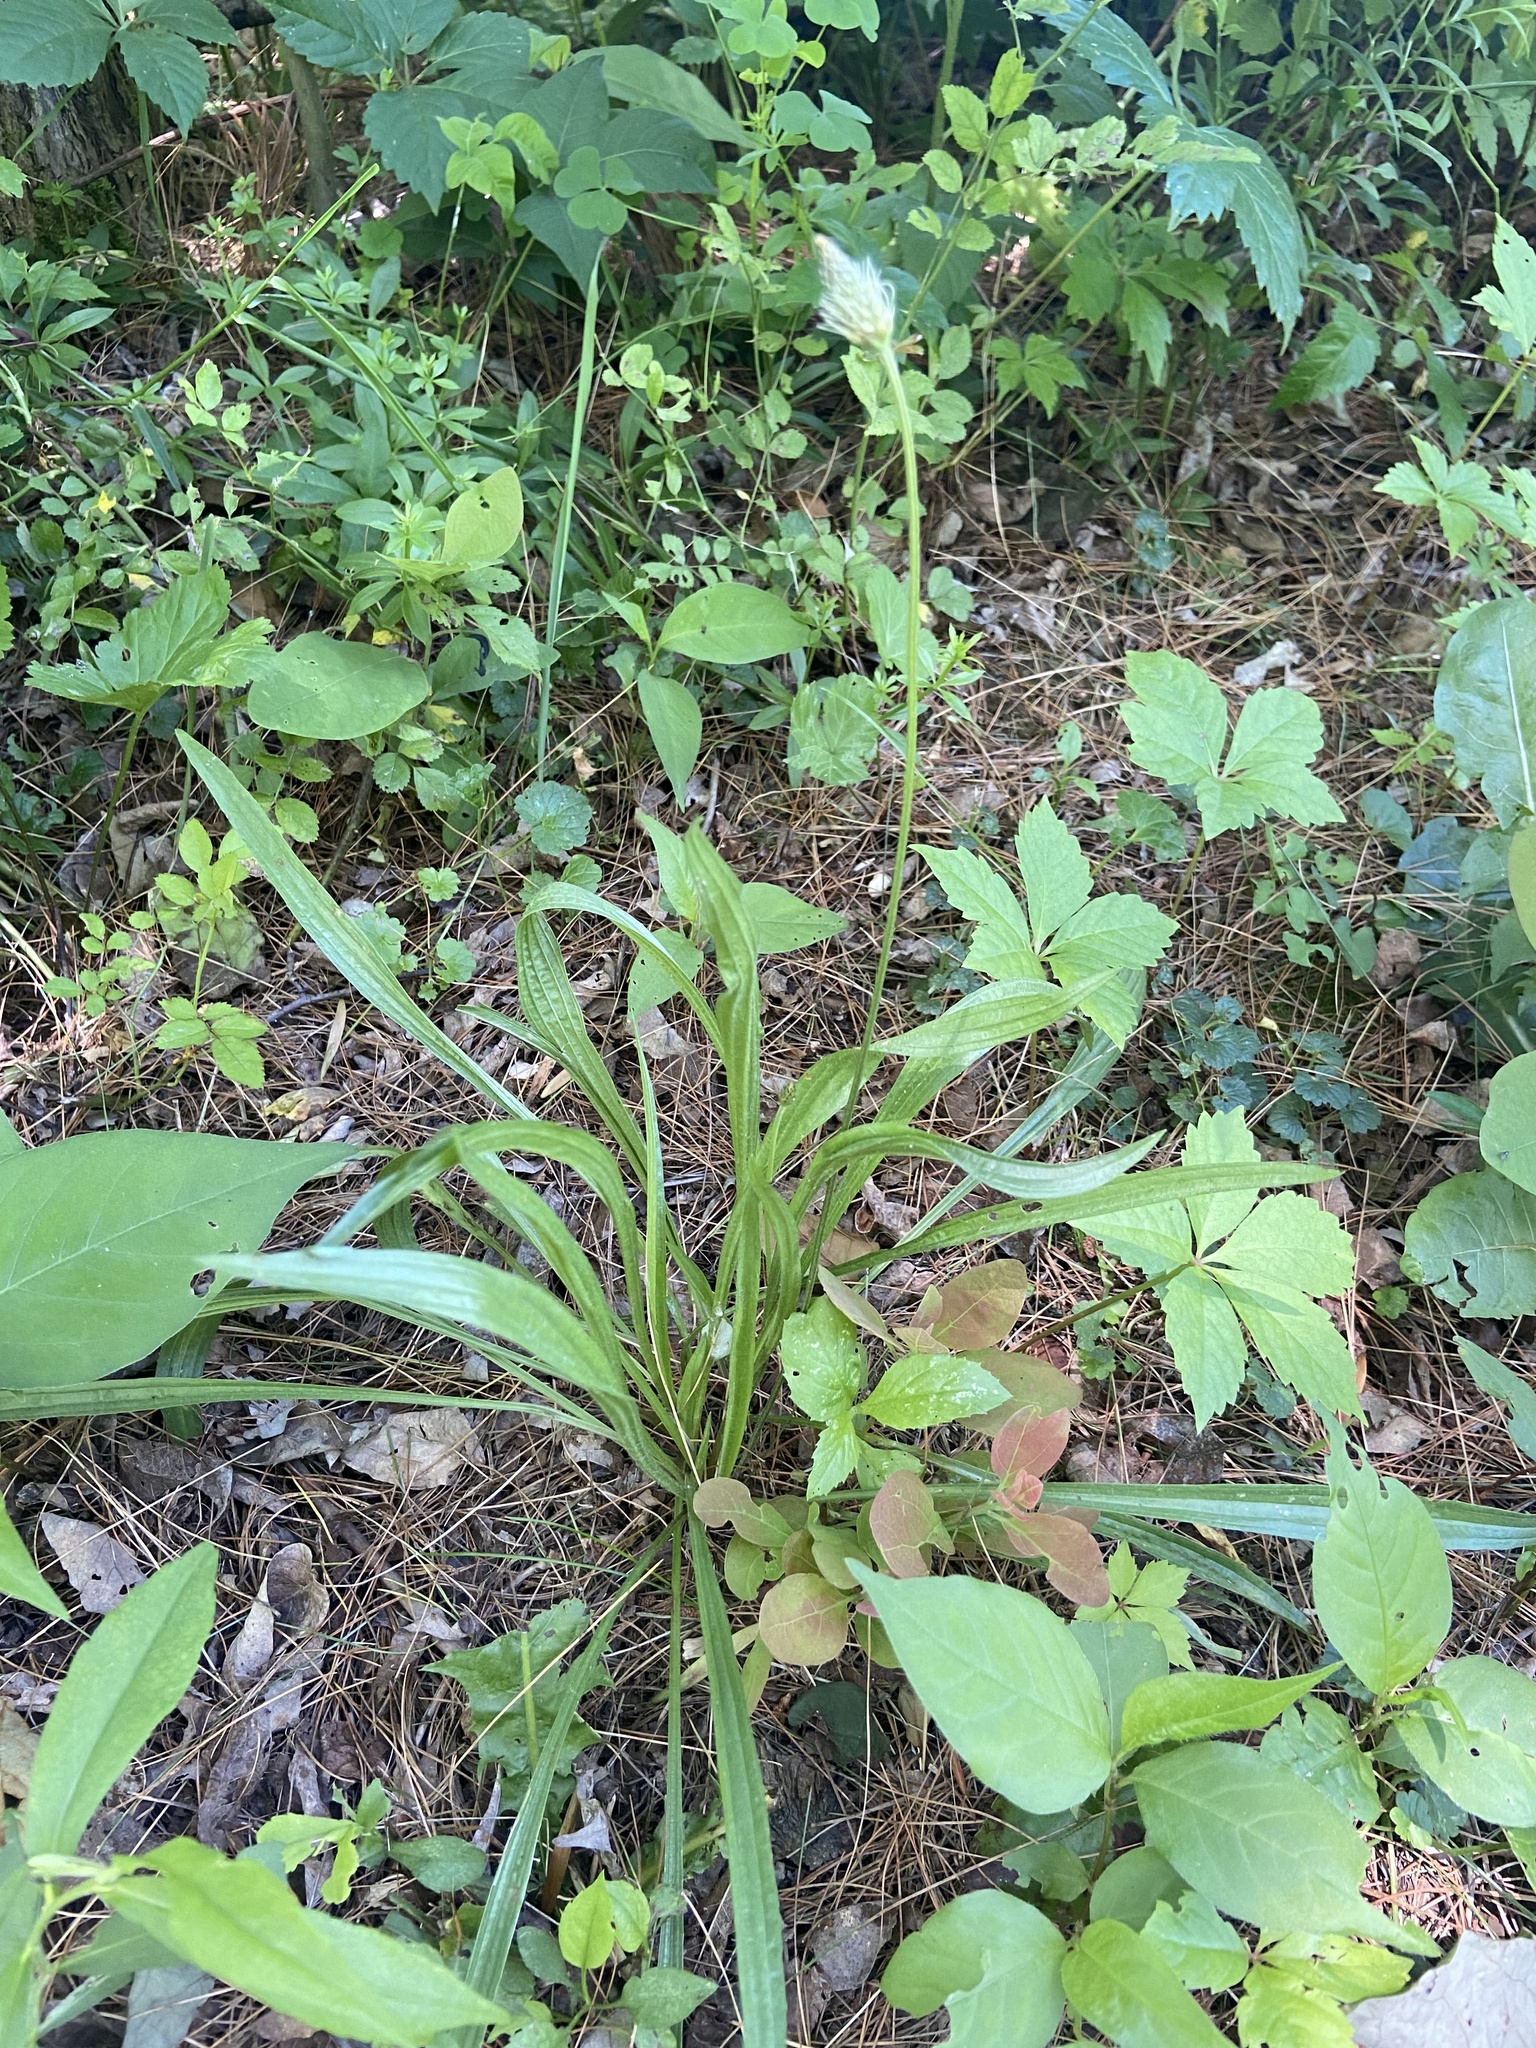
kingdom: Plantae
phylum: Tracheophyta
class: Magnoliopsida
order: Lamiales
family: Plantaginaceae
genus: Plantago
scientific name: Plantago lanceolata
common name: Ribwort plantain
